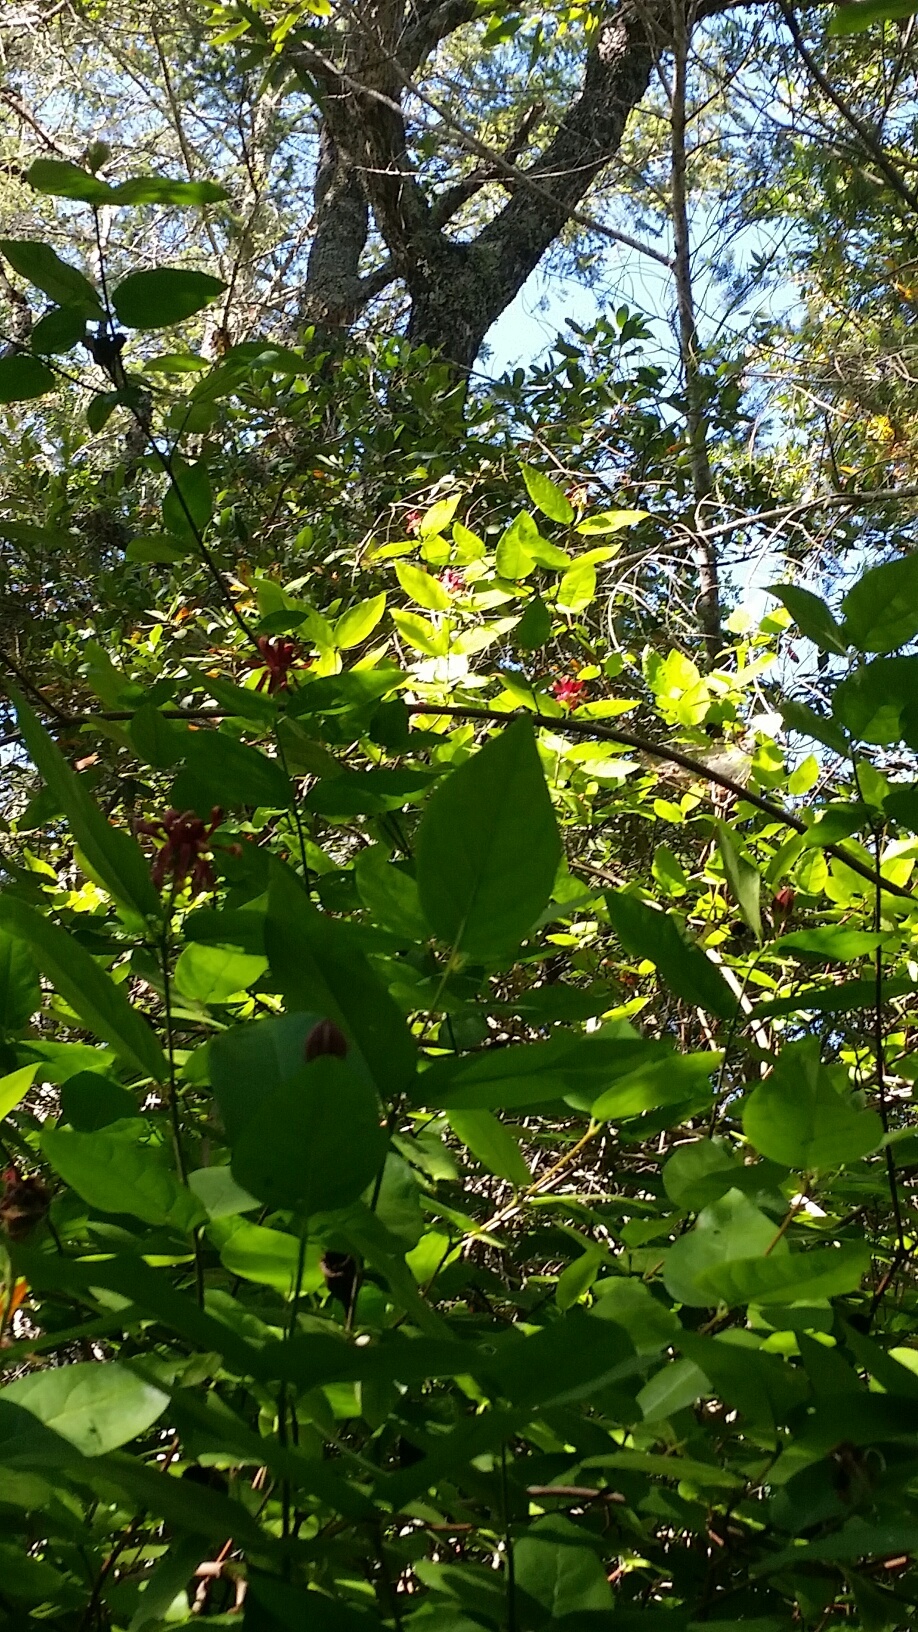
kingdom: Plantae
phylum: Tracheophyta
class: Magnoliopsida
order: Laurales
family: Calycanthaceae
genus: Calycanthus
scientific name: Calycanthus occidentalis
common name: California spicebush
